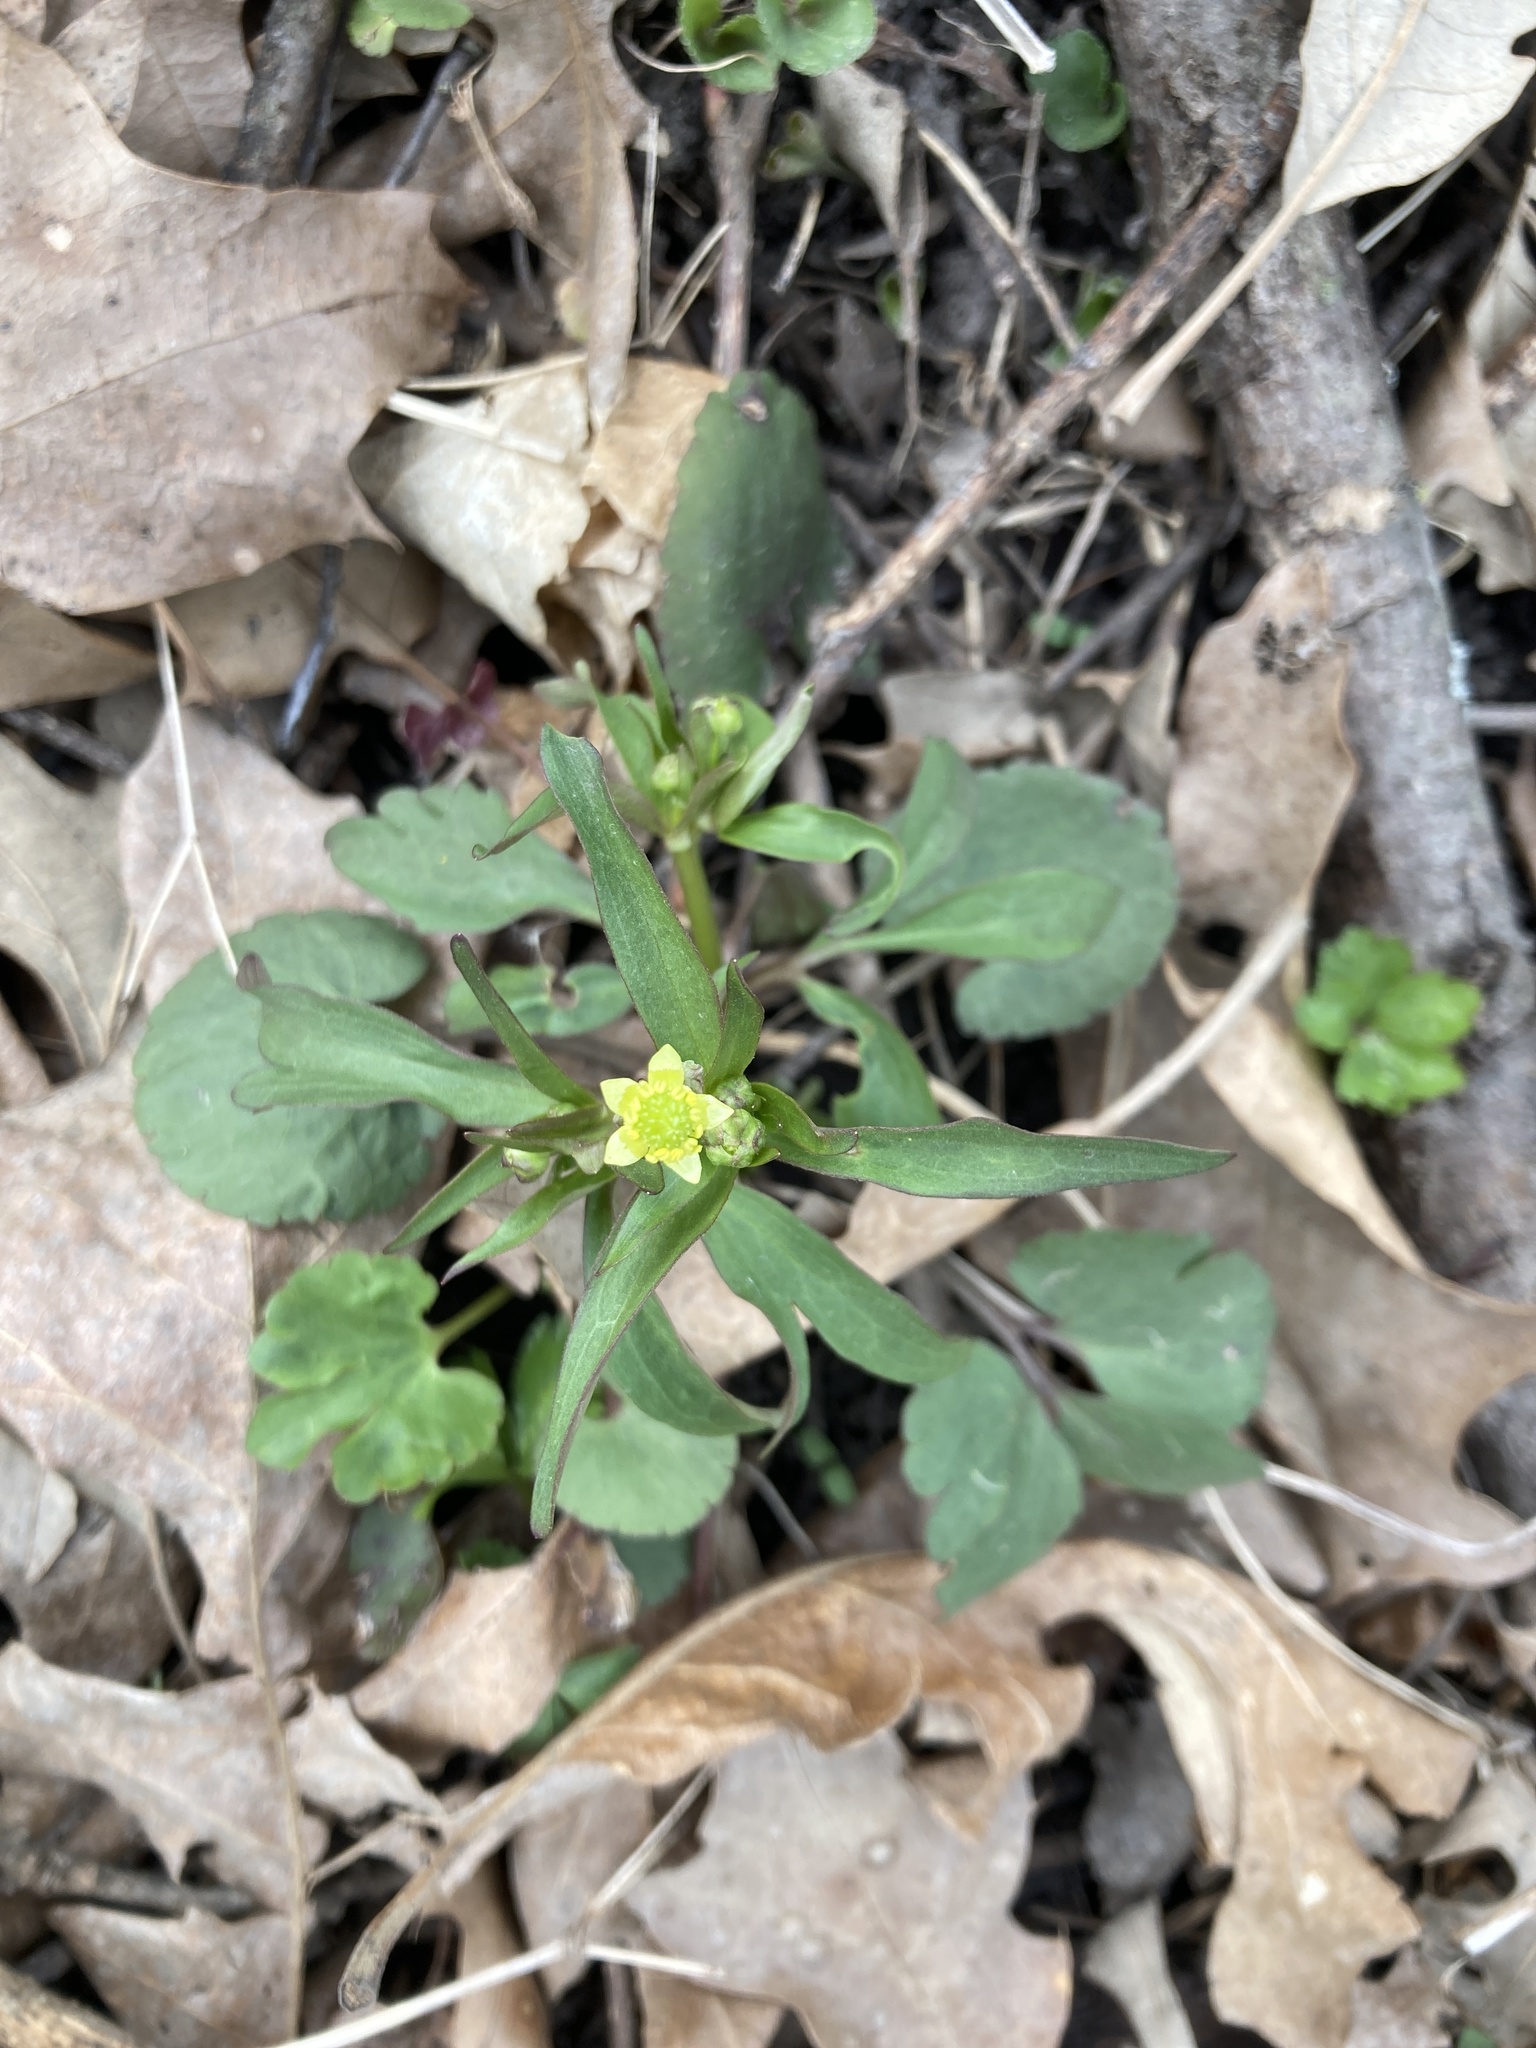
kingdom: Plantae
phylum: Tracheophyta
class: Magnoliopsida
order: Ranunculales
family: Ranunculaceae
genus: Ranunculus
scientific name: Ranunculus abortivus
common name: Early wood buttercup
